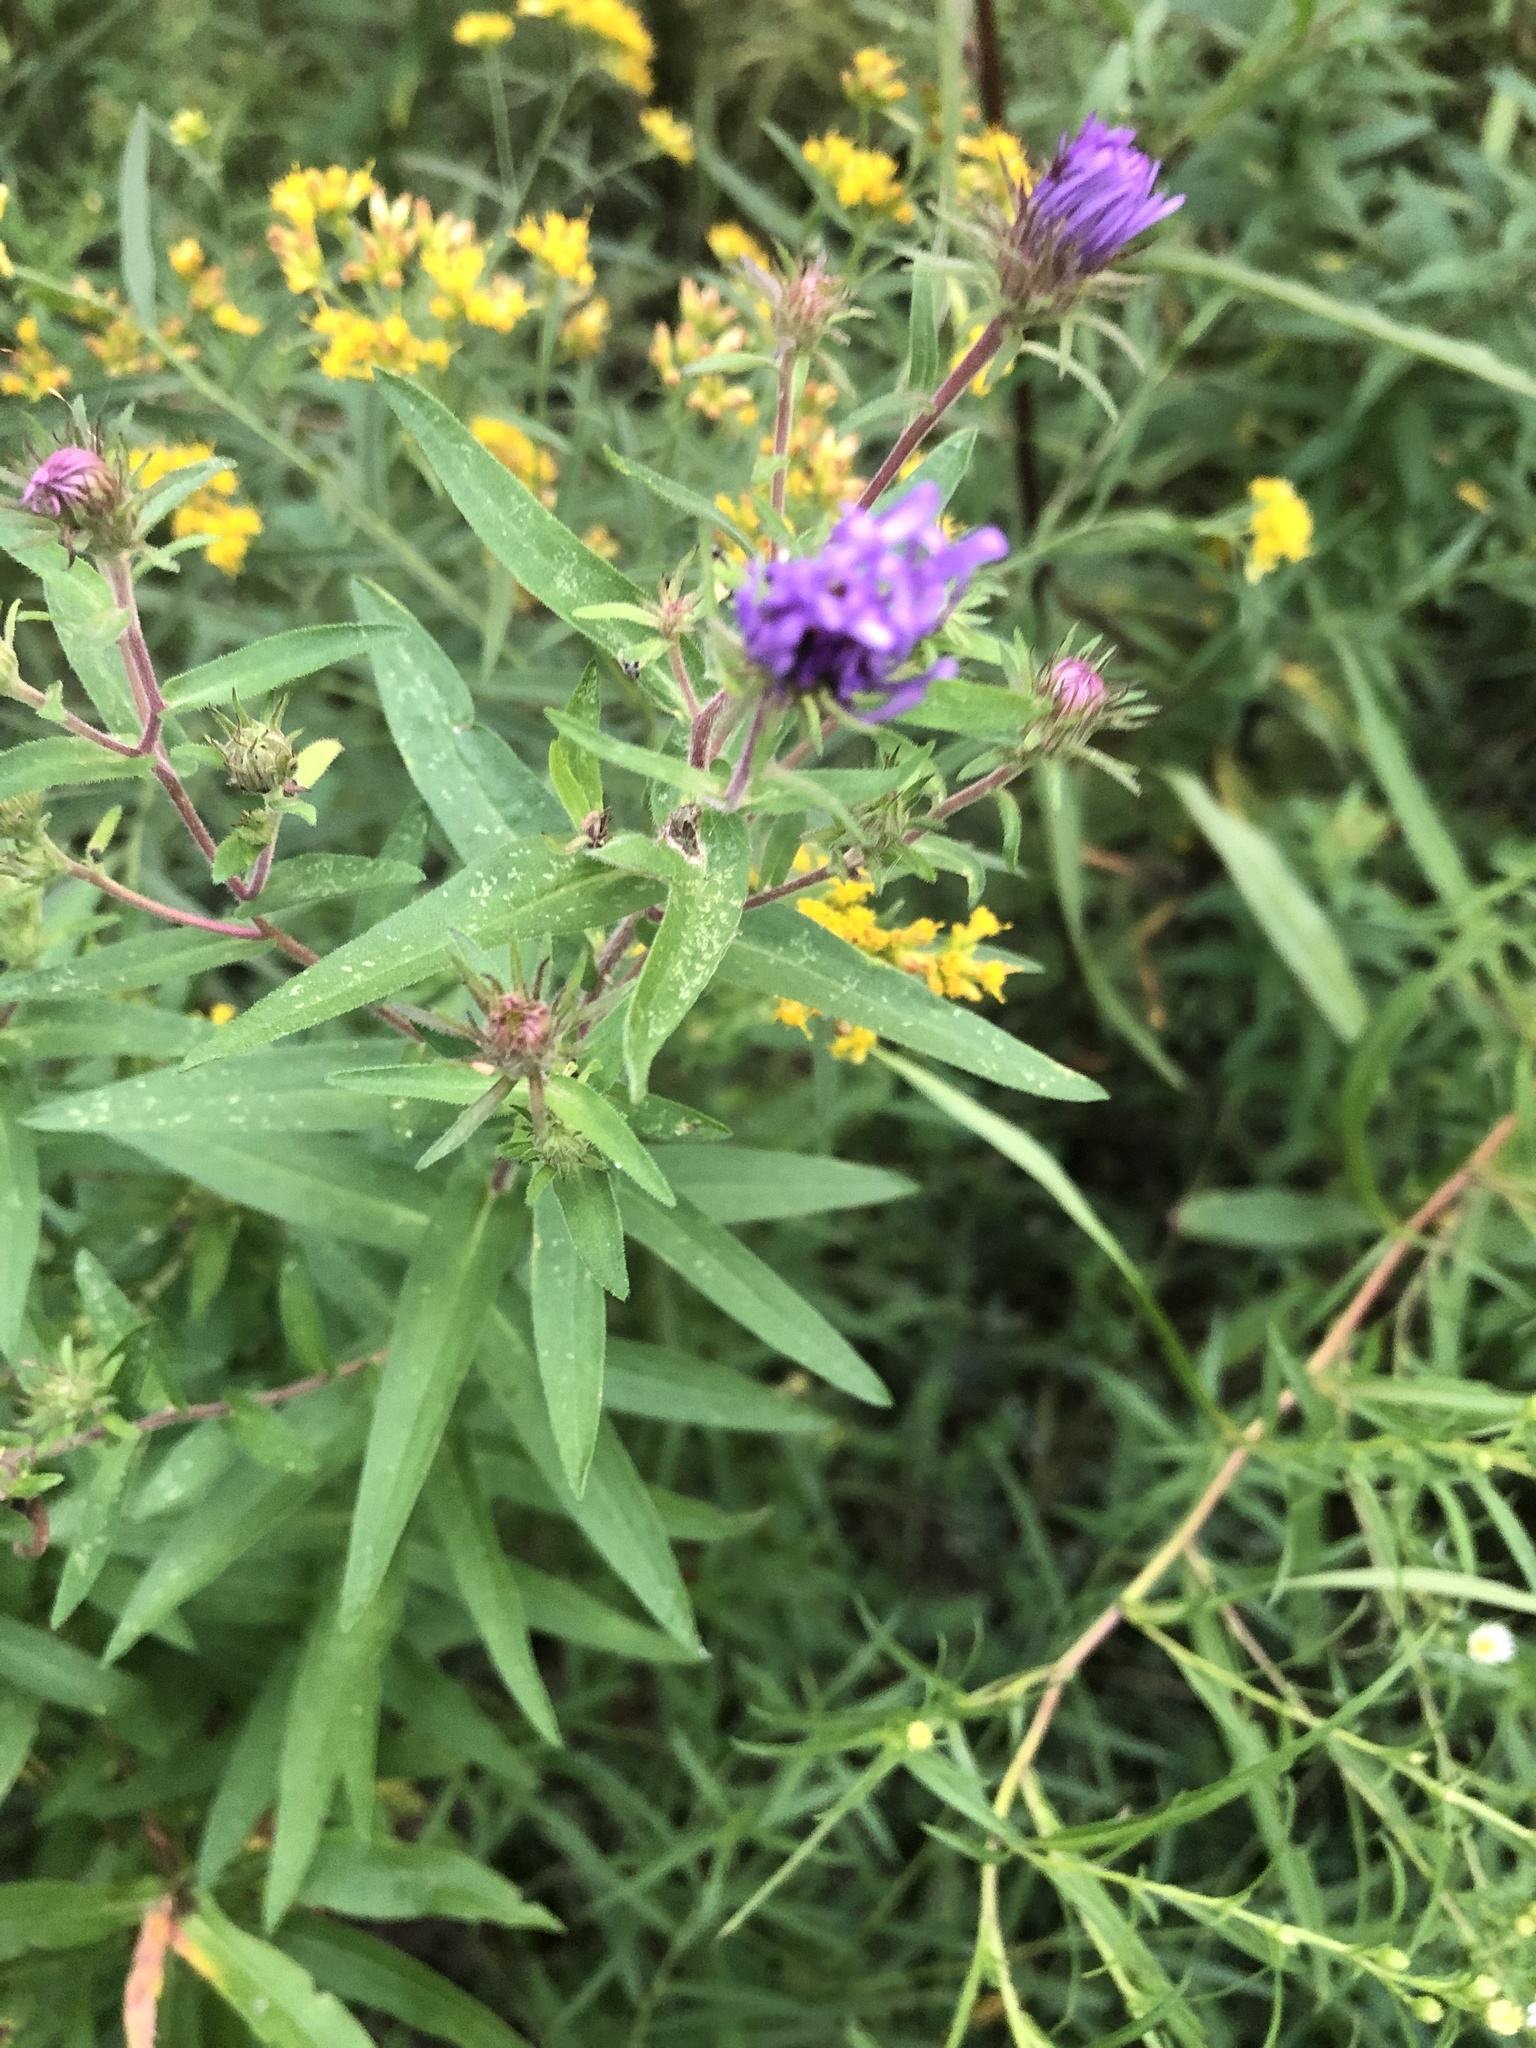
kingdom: Plantae
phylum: Tracheophyta
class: Magnoliopsida
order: Asterales
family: Asteraceae
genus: Symphyotrichum
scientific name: Symphyotrichum novae-angliae
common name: Michaelmas daisy
